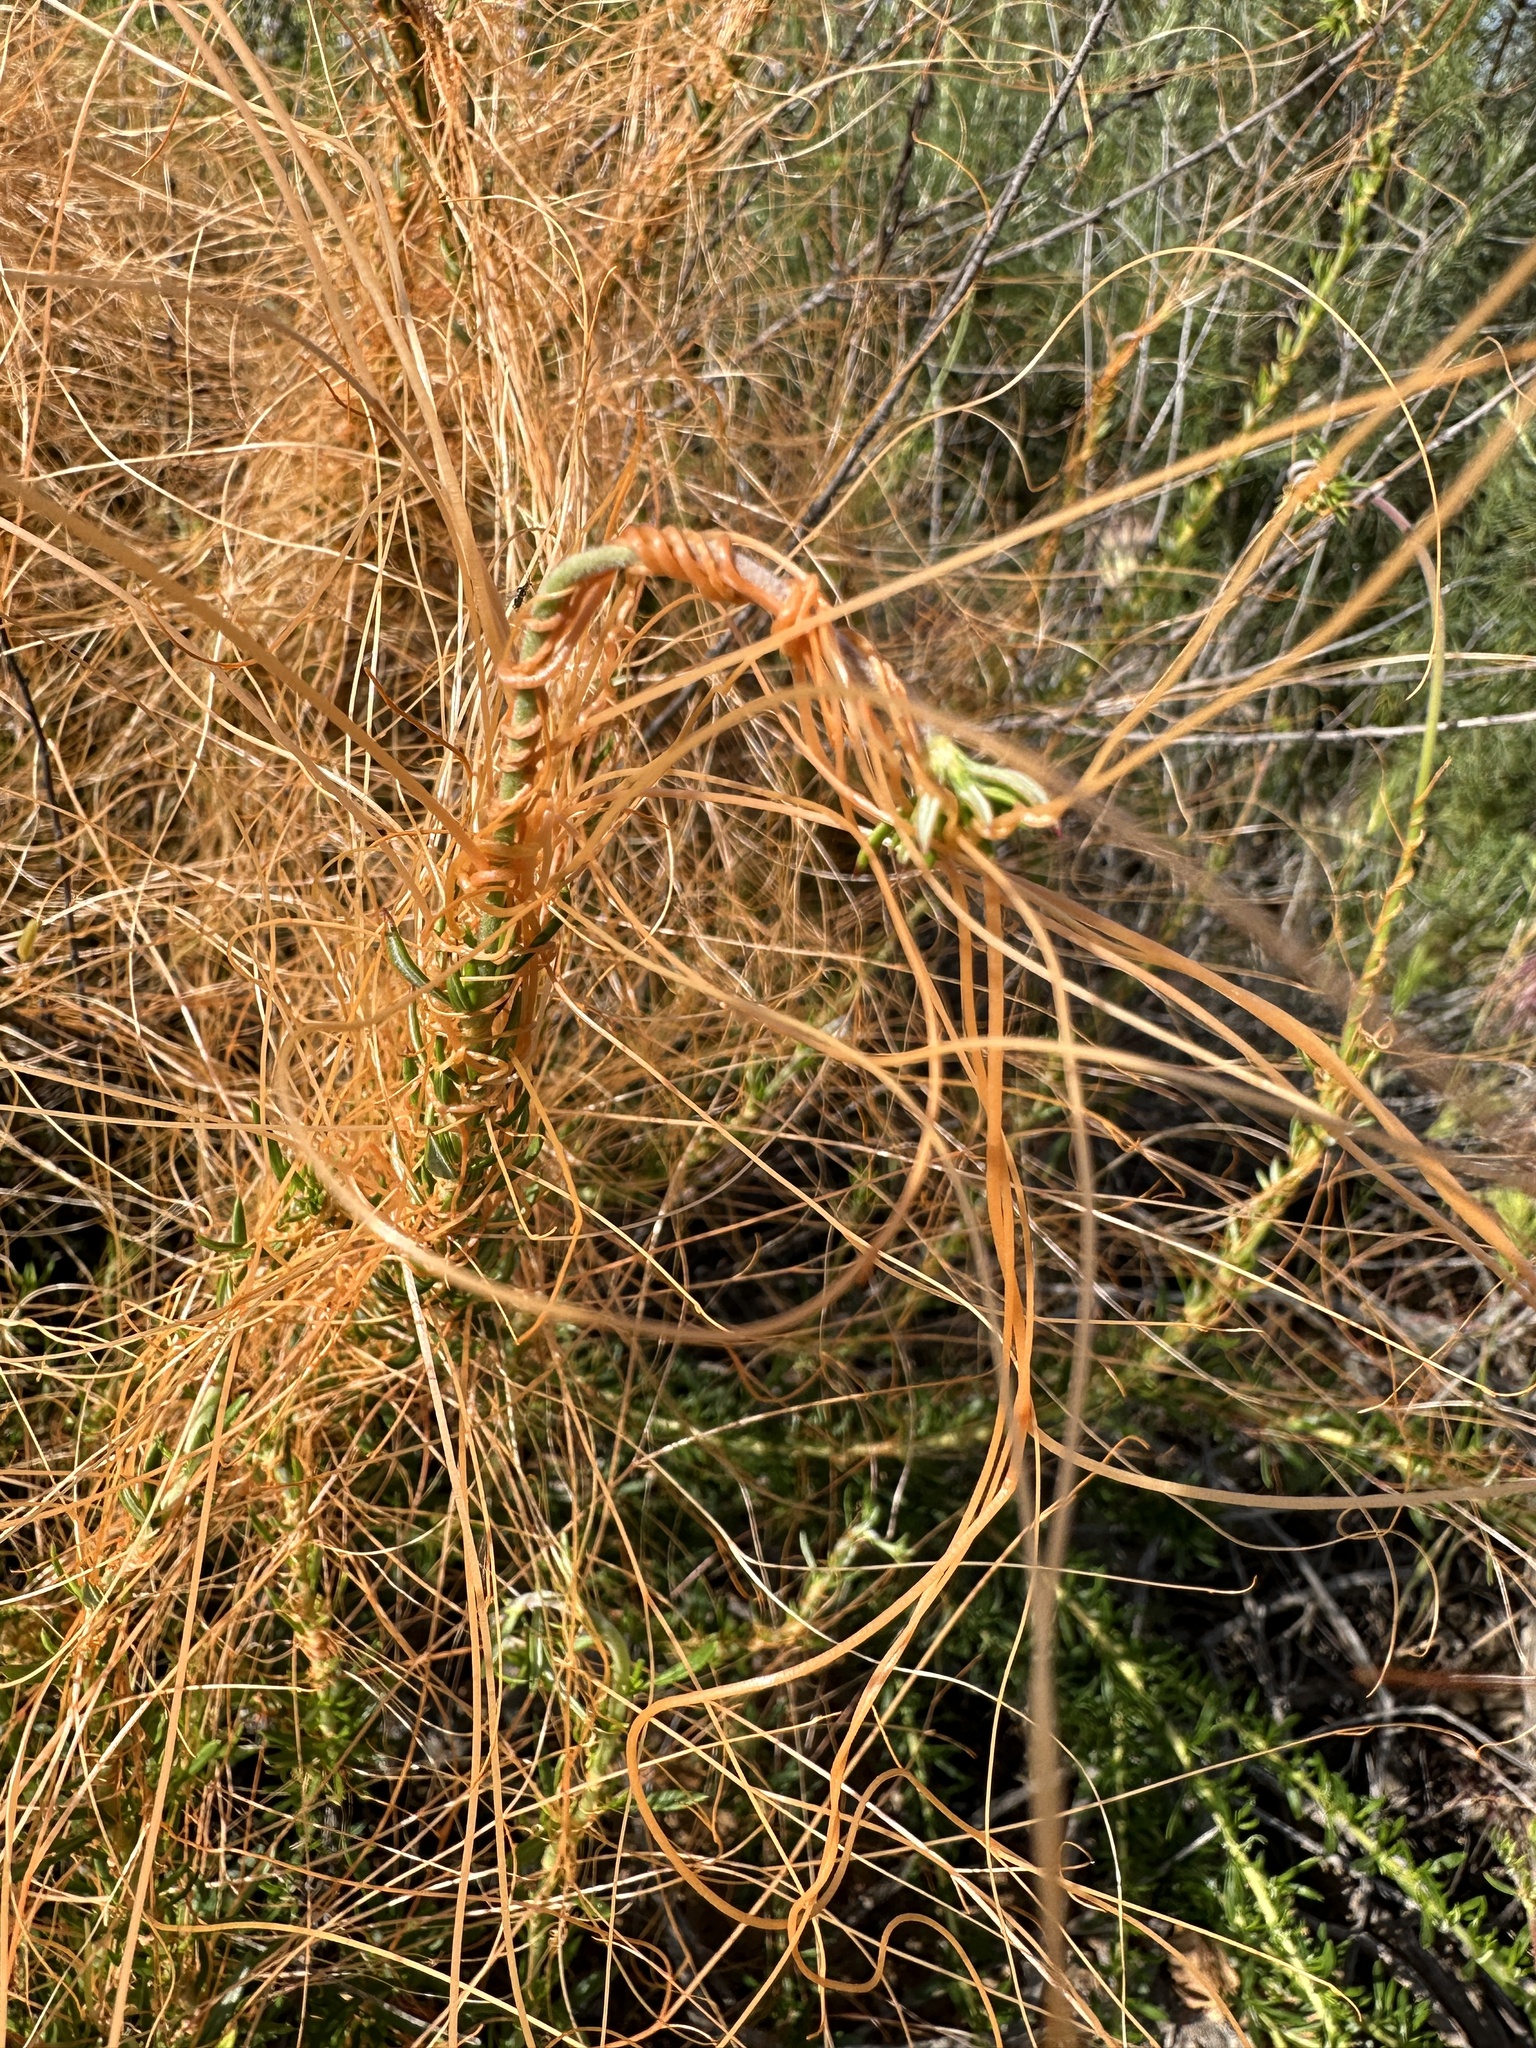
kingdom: Plantae
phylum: Tracheophyta
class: Magnoliopsida
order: Solanales
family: Convolvulaceae
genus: Cuscuta
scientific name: Cuscuta californica
